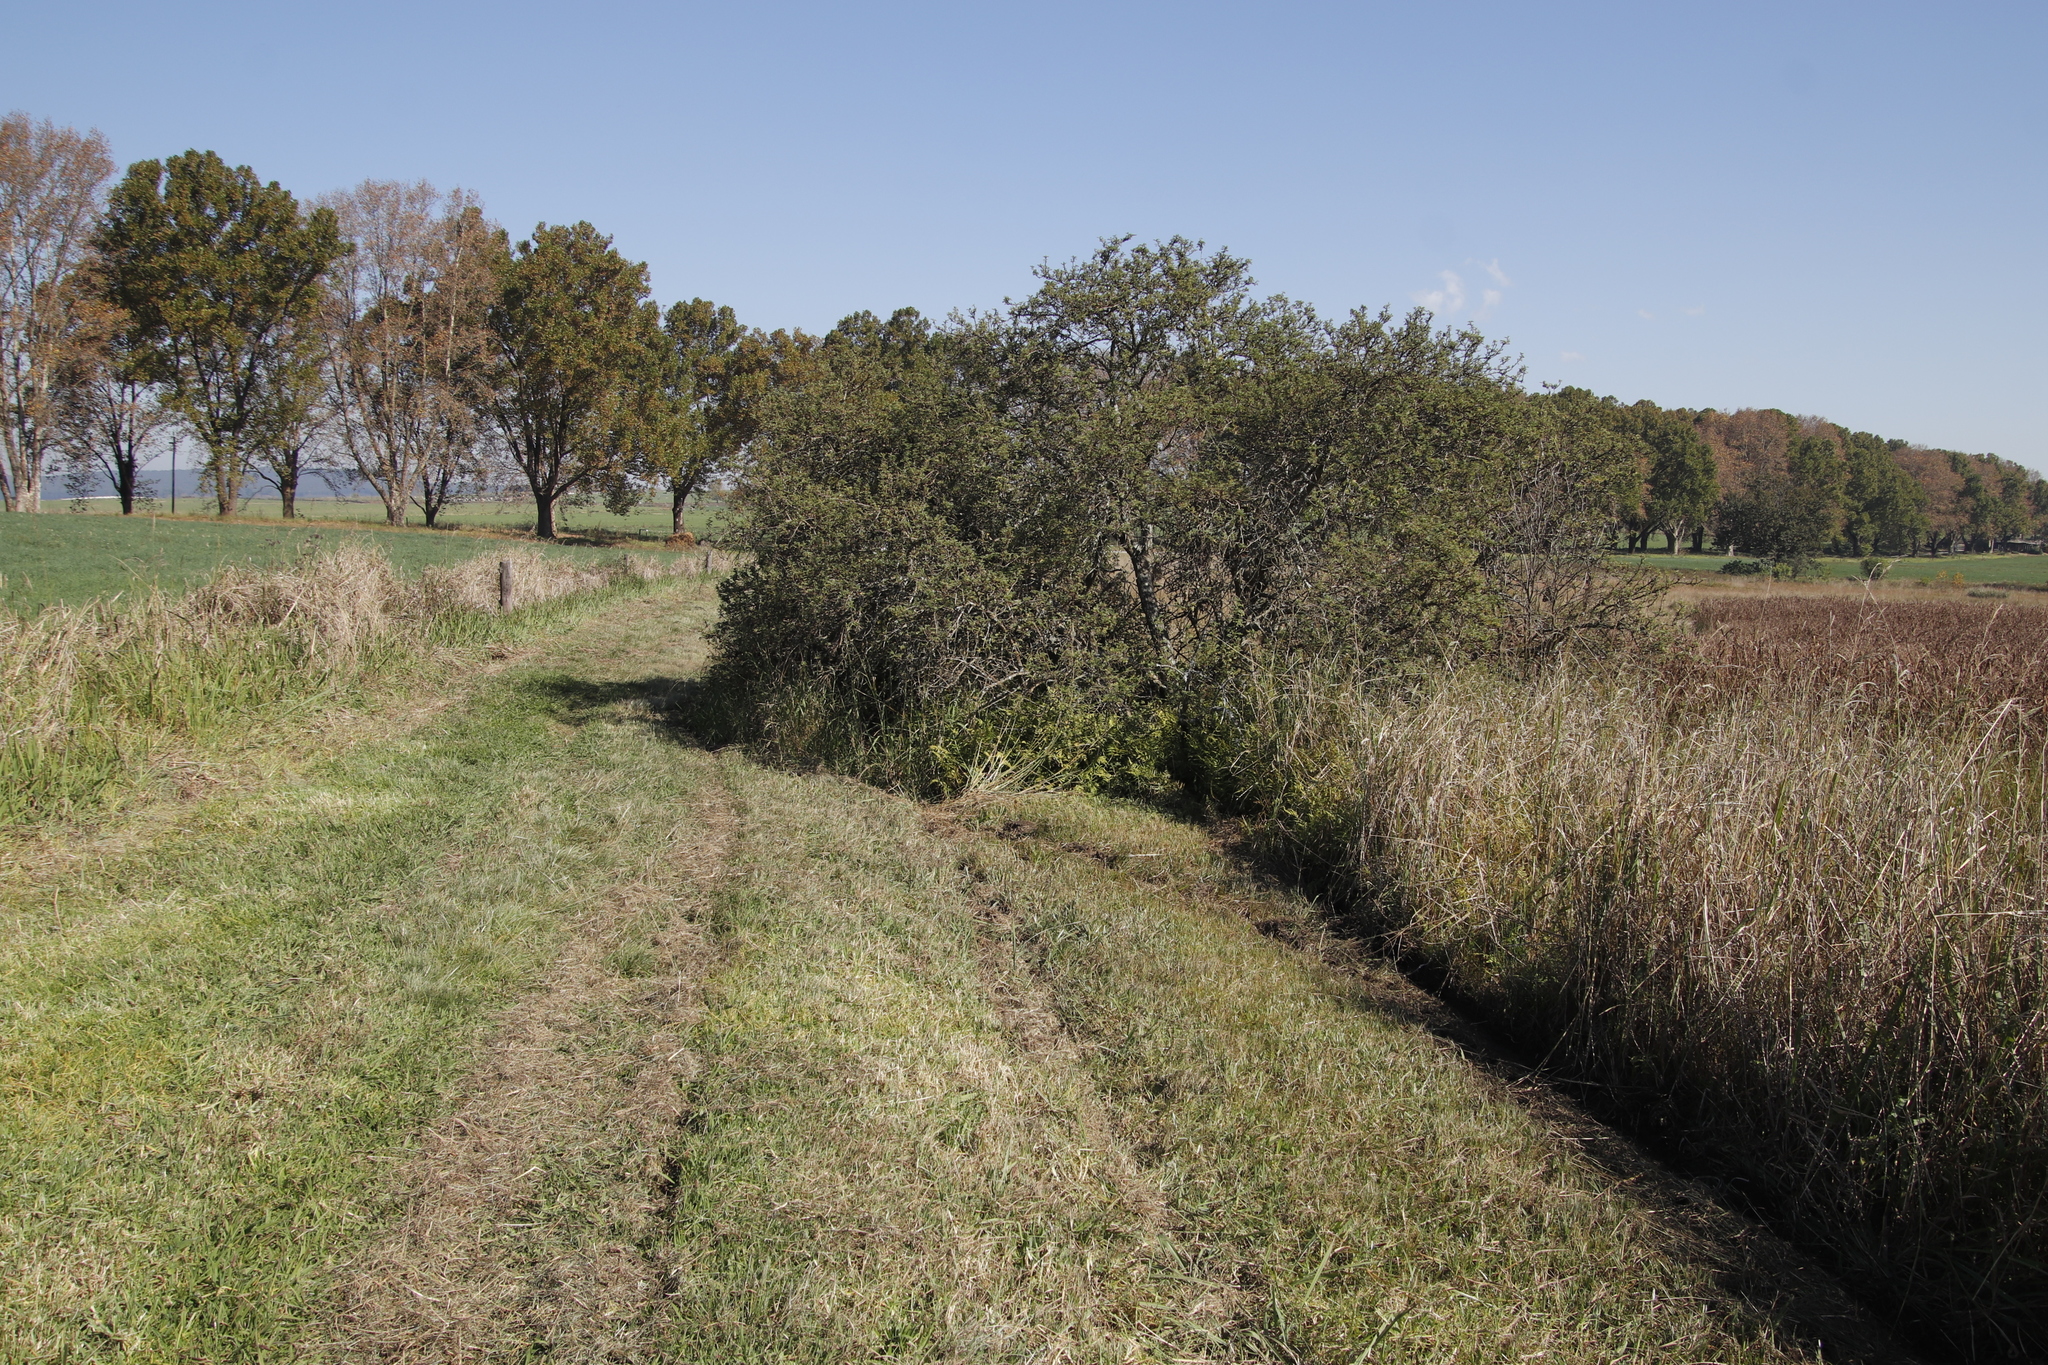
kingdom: Plantae
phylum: Tracheophyta
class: Magnoliopsida
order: Rosales
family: Rosaceae
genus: Leucosidea
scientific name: Leucosidea sericea
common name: Oldwood
